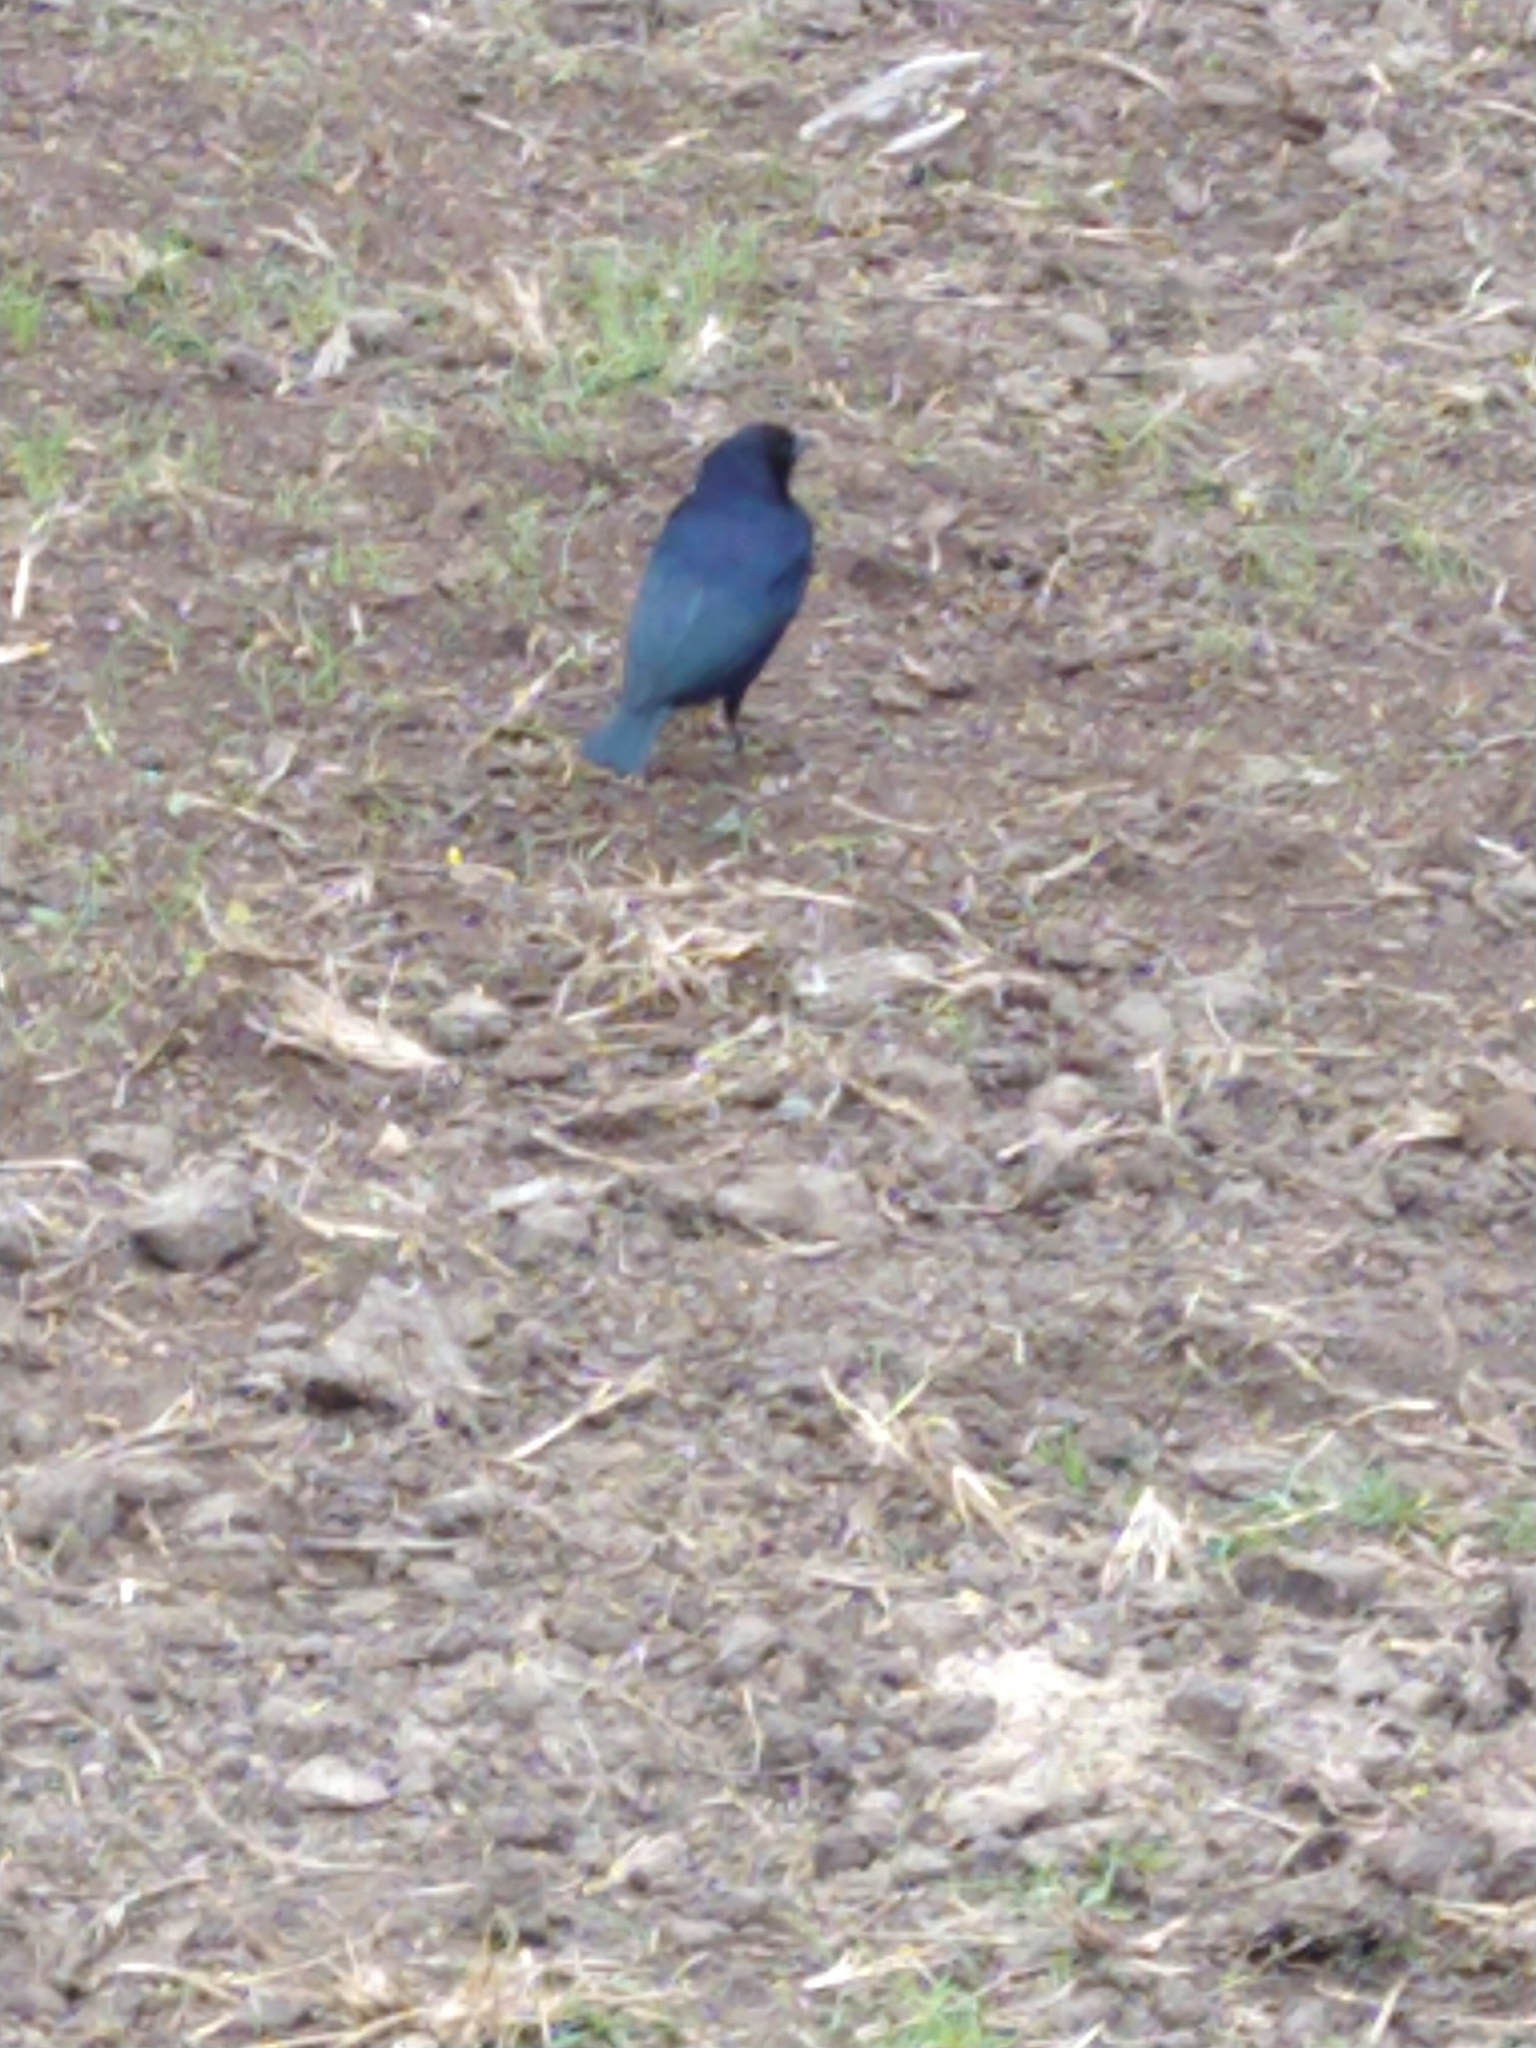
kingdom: Animalia
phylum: Chordata
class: Aves
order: Passeriformes
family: Icteridae
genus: Molothrus
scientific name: Molothrus bonariensis
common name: Shiny cowbird
